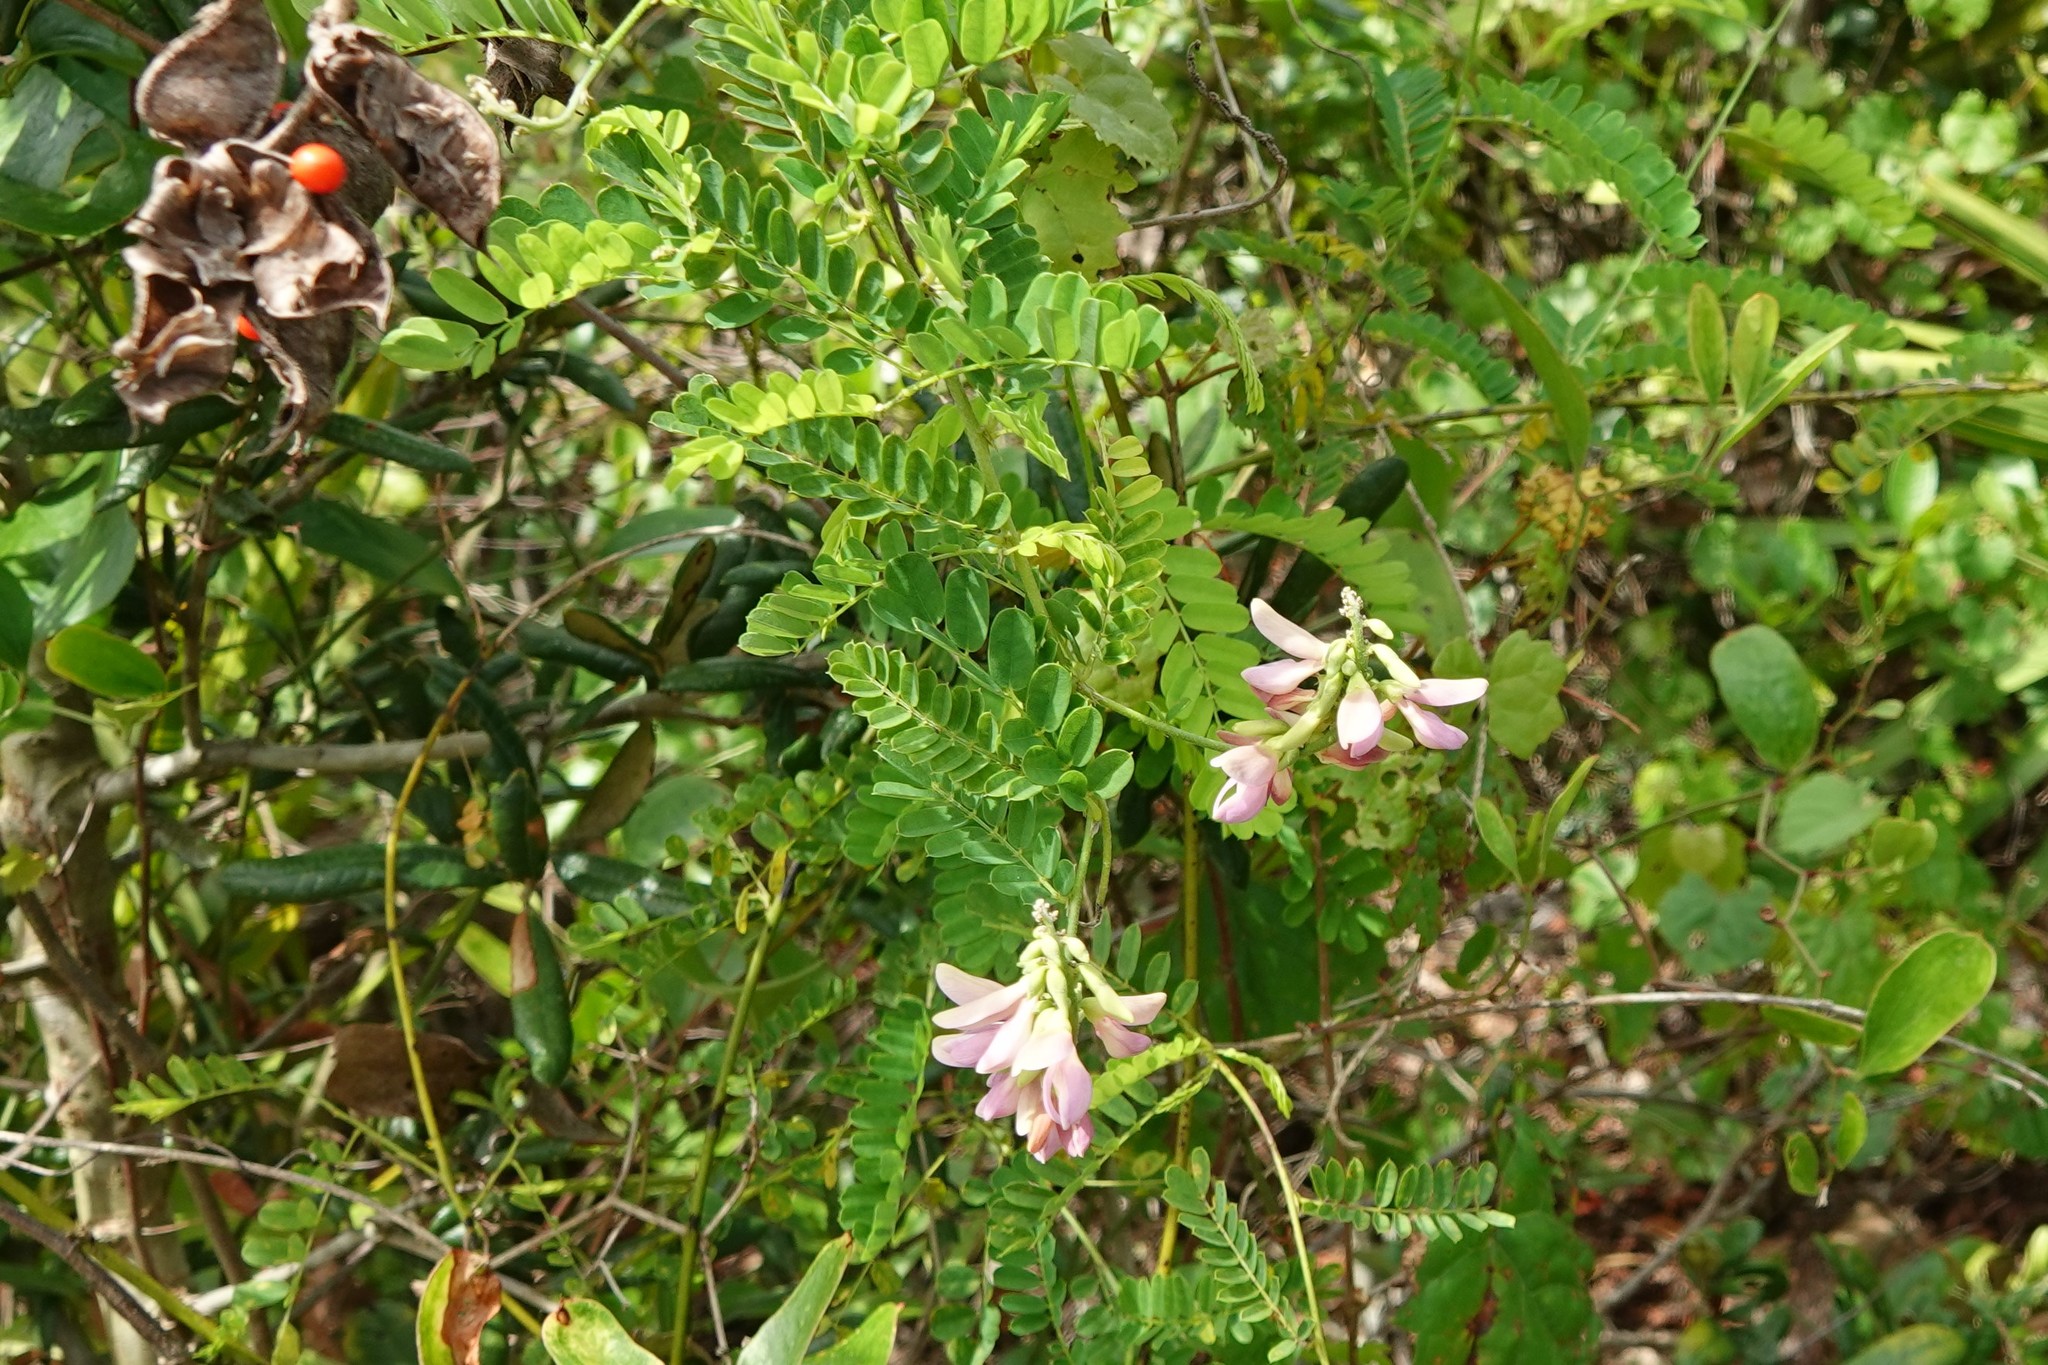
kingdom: Plantae
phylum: Tracheophyta
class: Magnoliopsida
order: Fabales
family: Fabaceae
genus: Abrus
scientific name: Abrus precatorius
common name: Rosarypea
